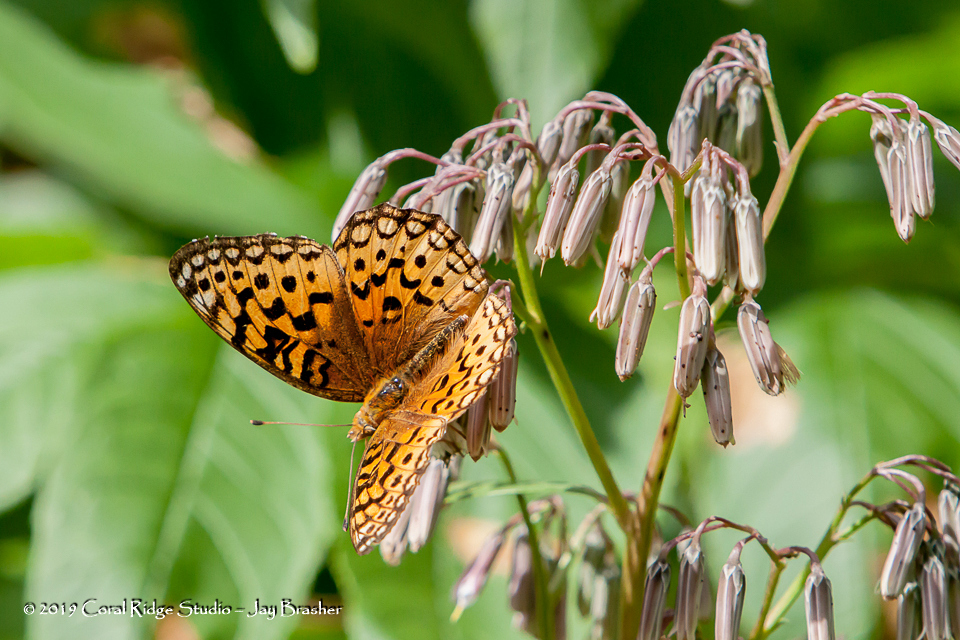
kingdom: Animalia
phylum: Arthropoda
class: Insecta
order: Lepidoptera
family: Nymphalidae
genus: Speyeria
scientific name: Speyeria aphrodite
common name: Aphrodite friitllary
